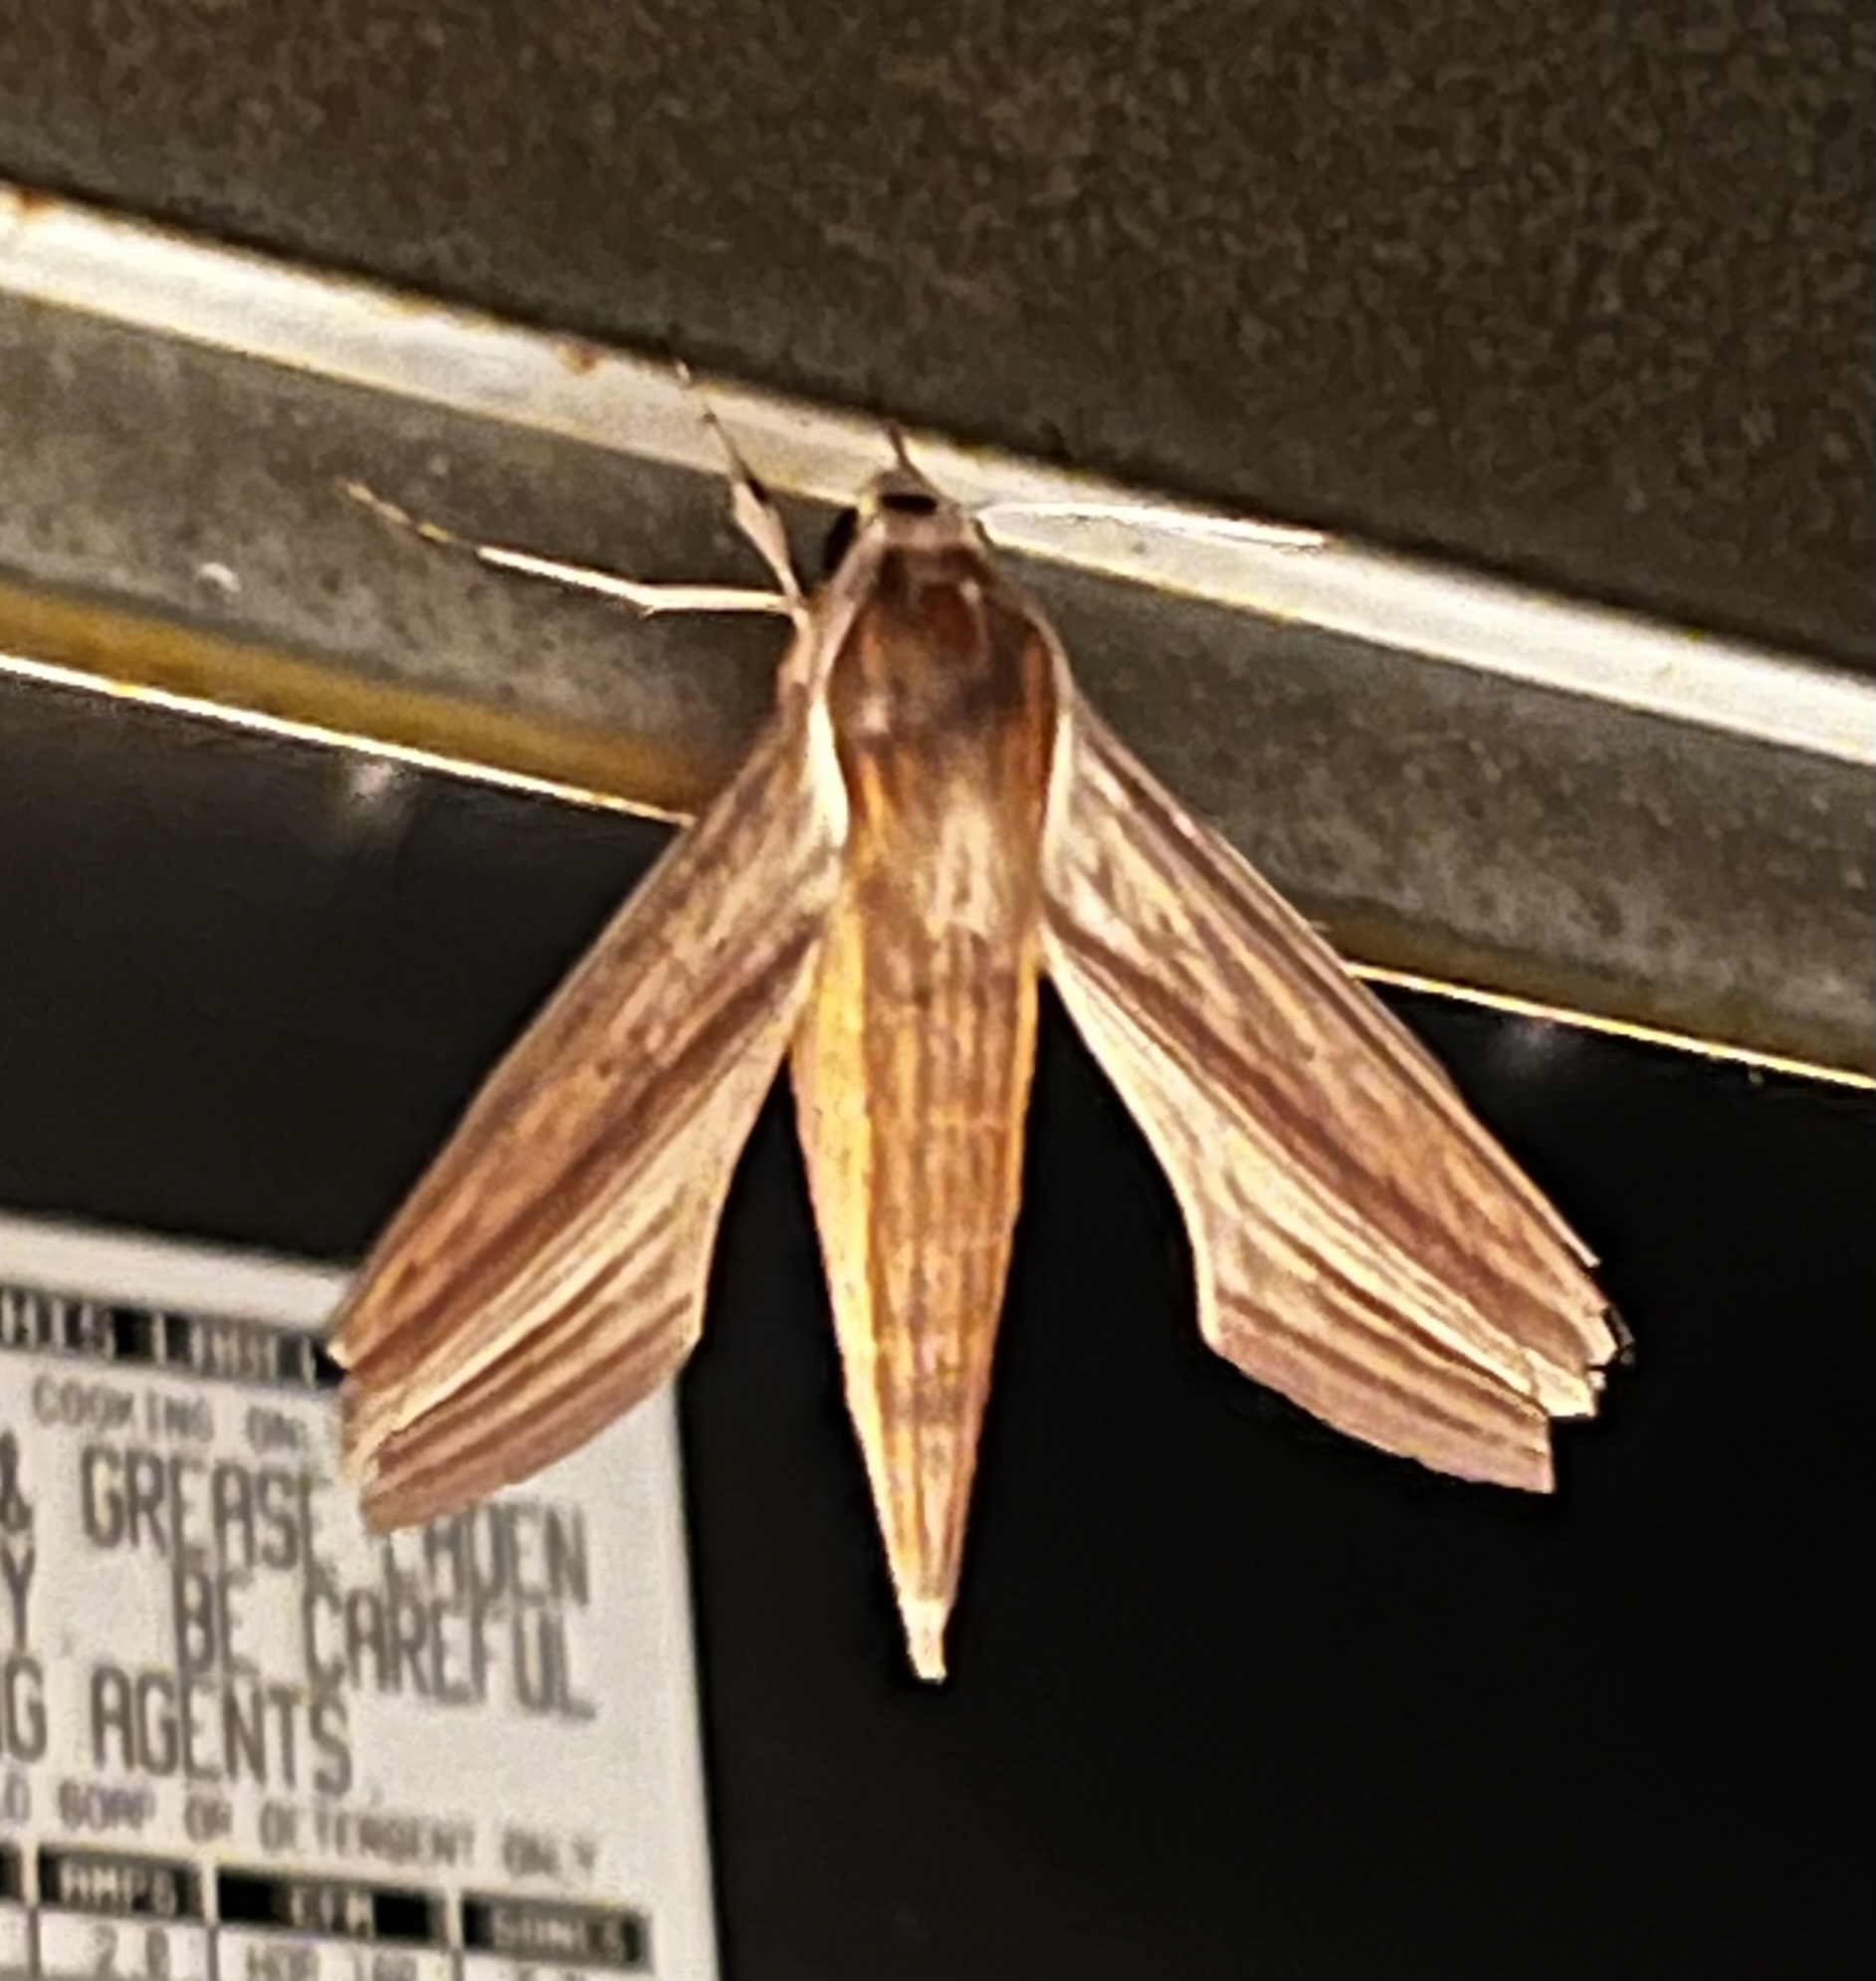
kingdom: Animalia
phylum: Arthropoda
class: Insecta
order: Lepidoptera
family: Sphingidae
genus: Xylophanes
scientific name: Xylophanes tersa
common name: Tersa sphinx
